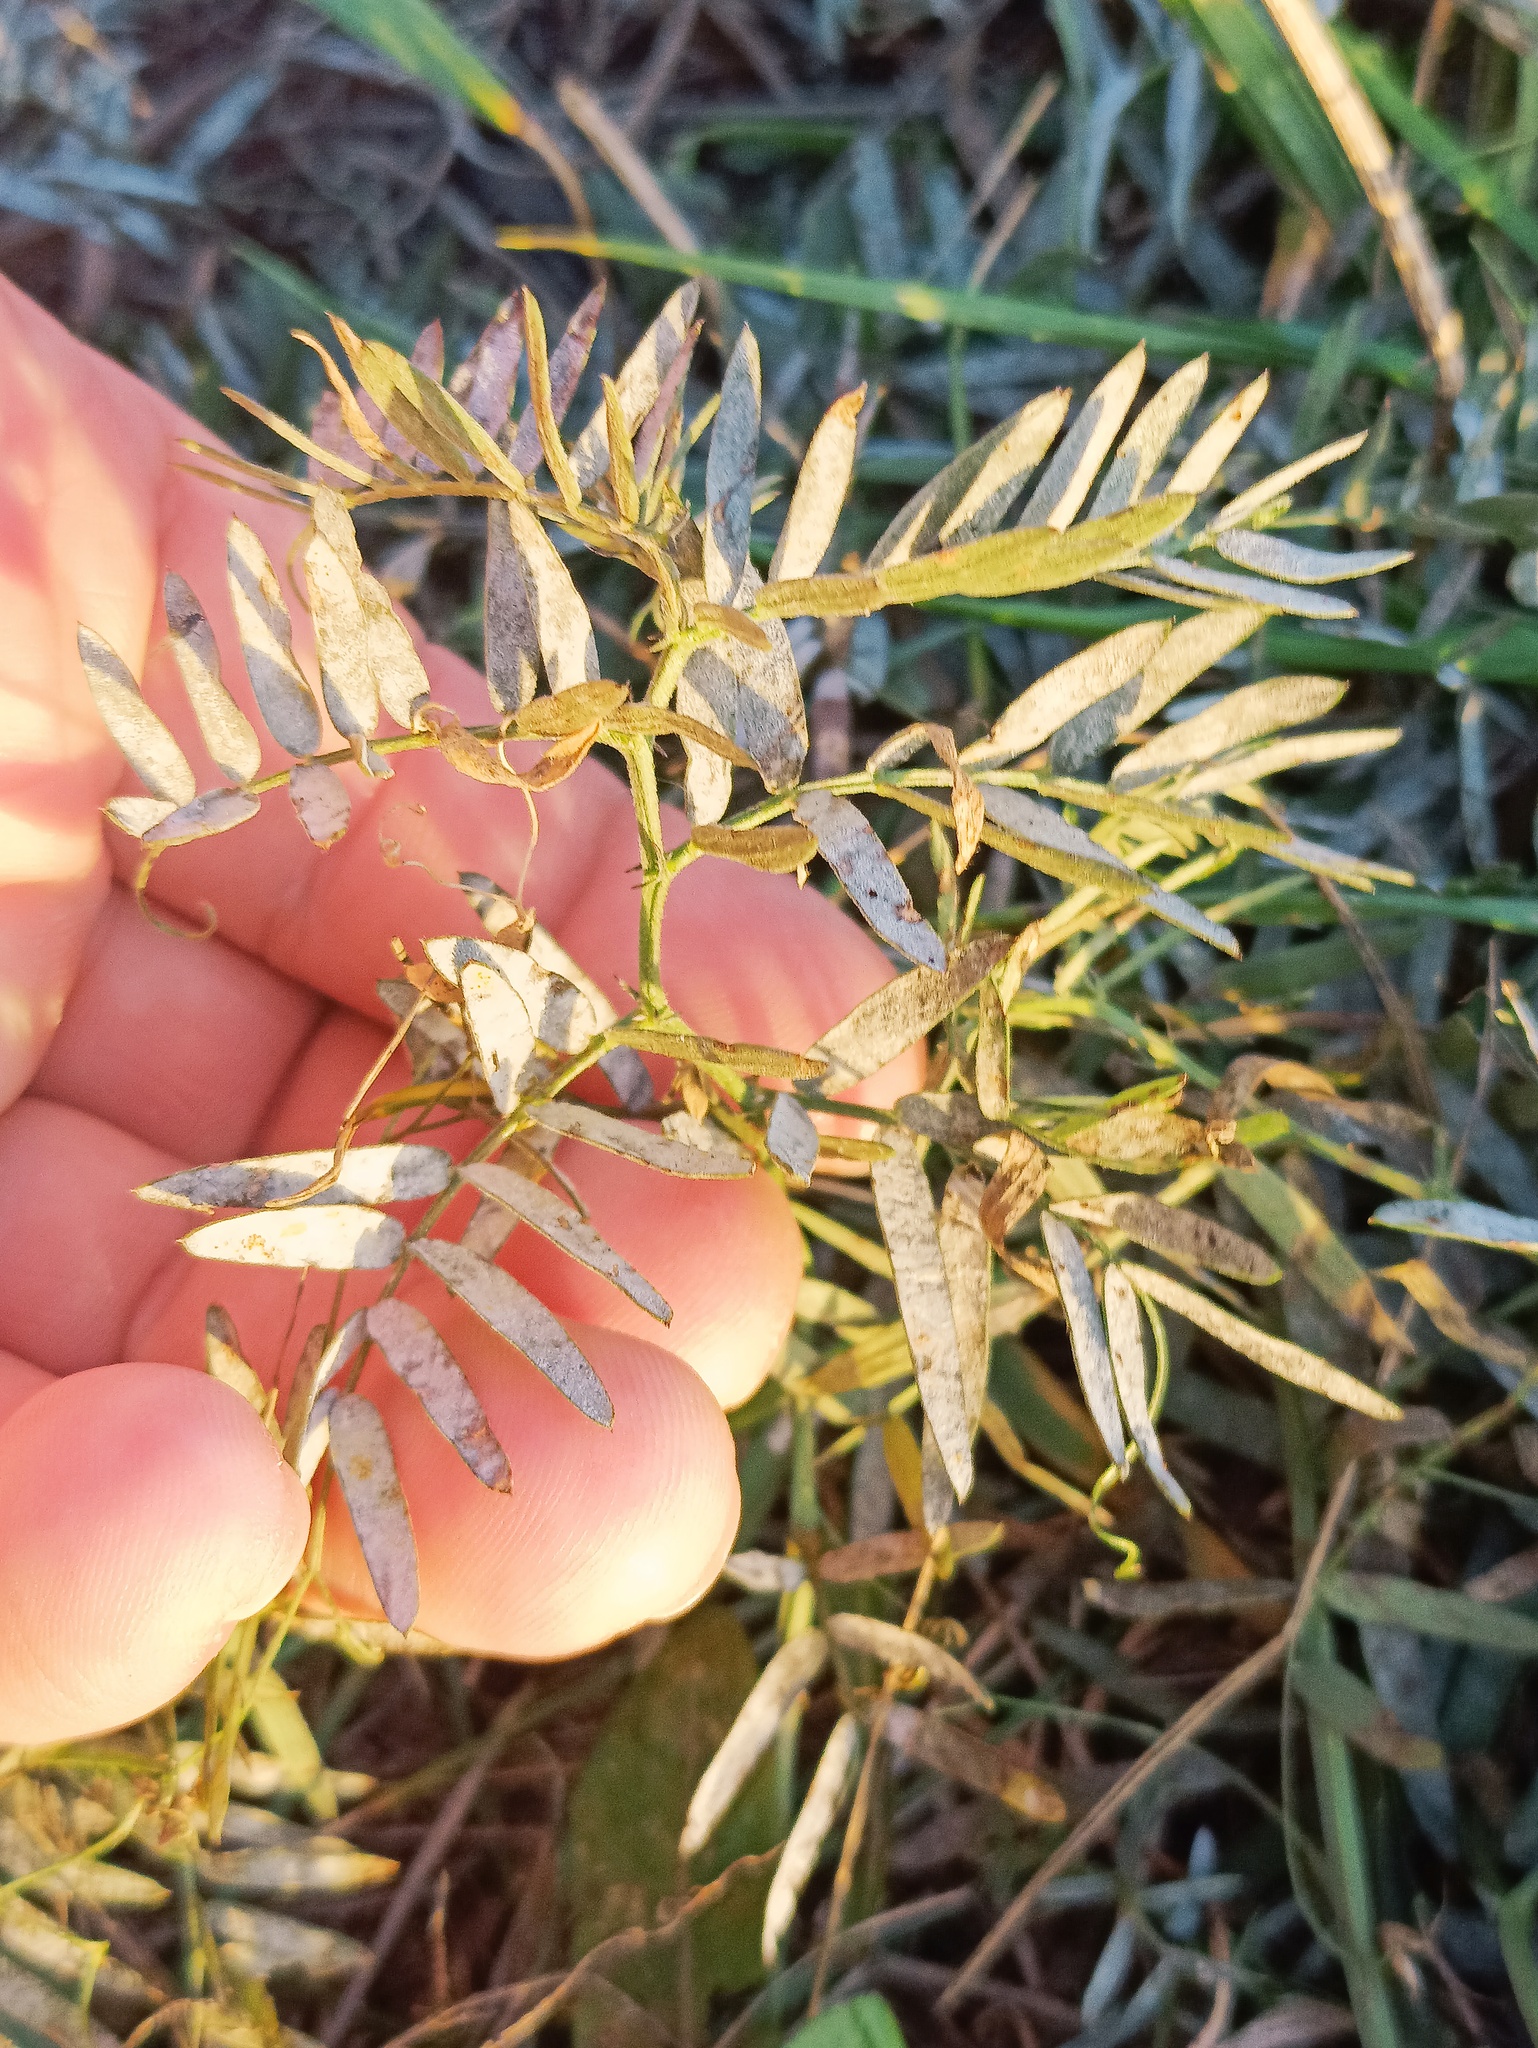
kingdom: Plantae
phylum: Tracheophyta
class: Magnoliopsida
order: Fabales
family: Fabaceae
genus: Vicia
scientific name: Vicia cracca
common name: Bird vetch
